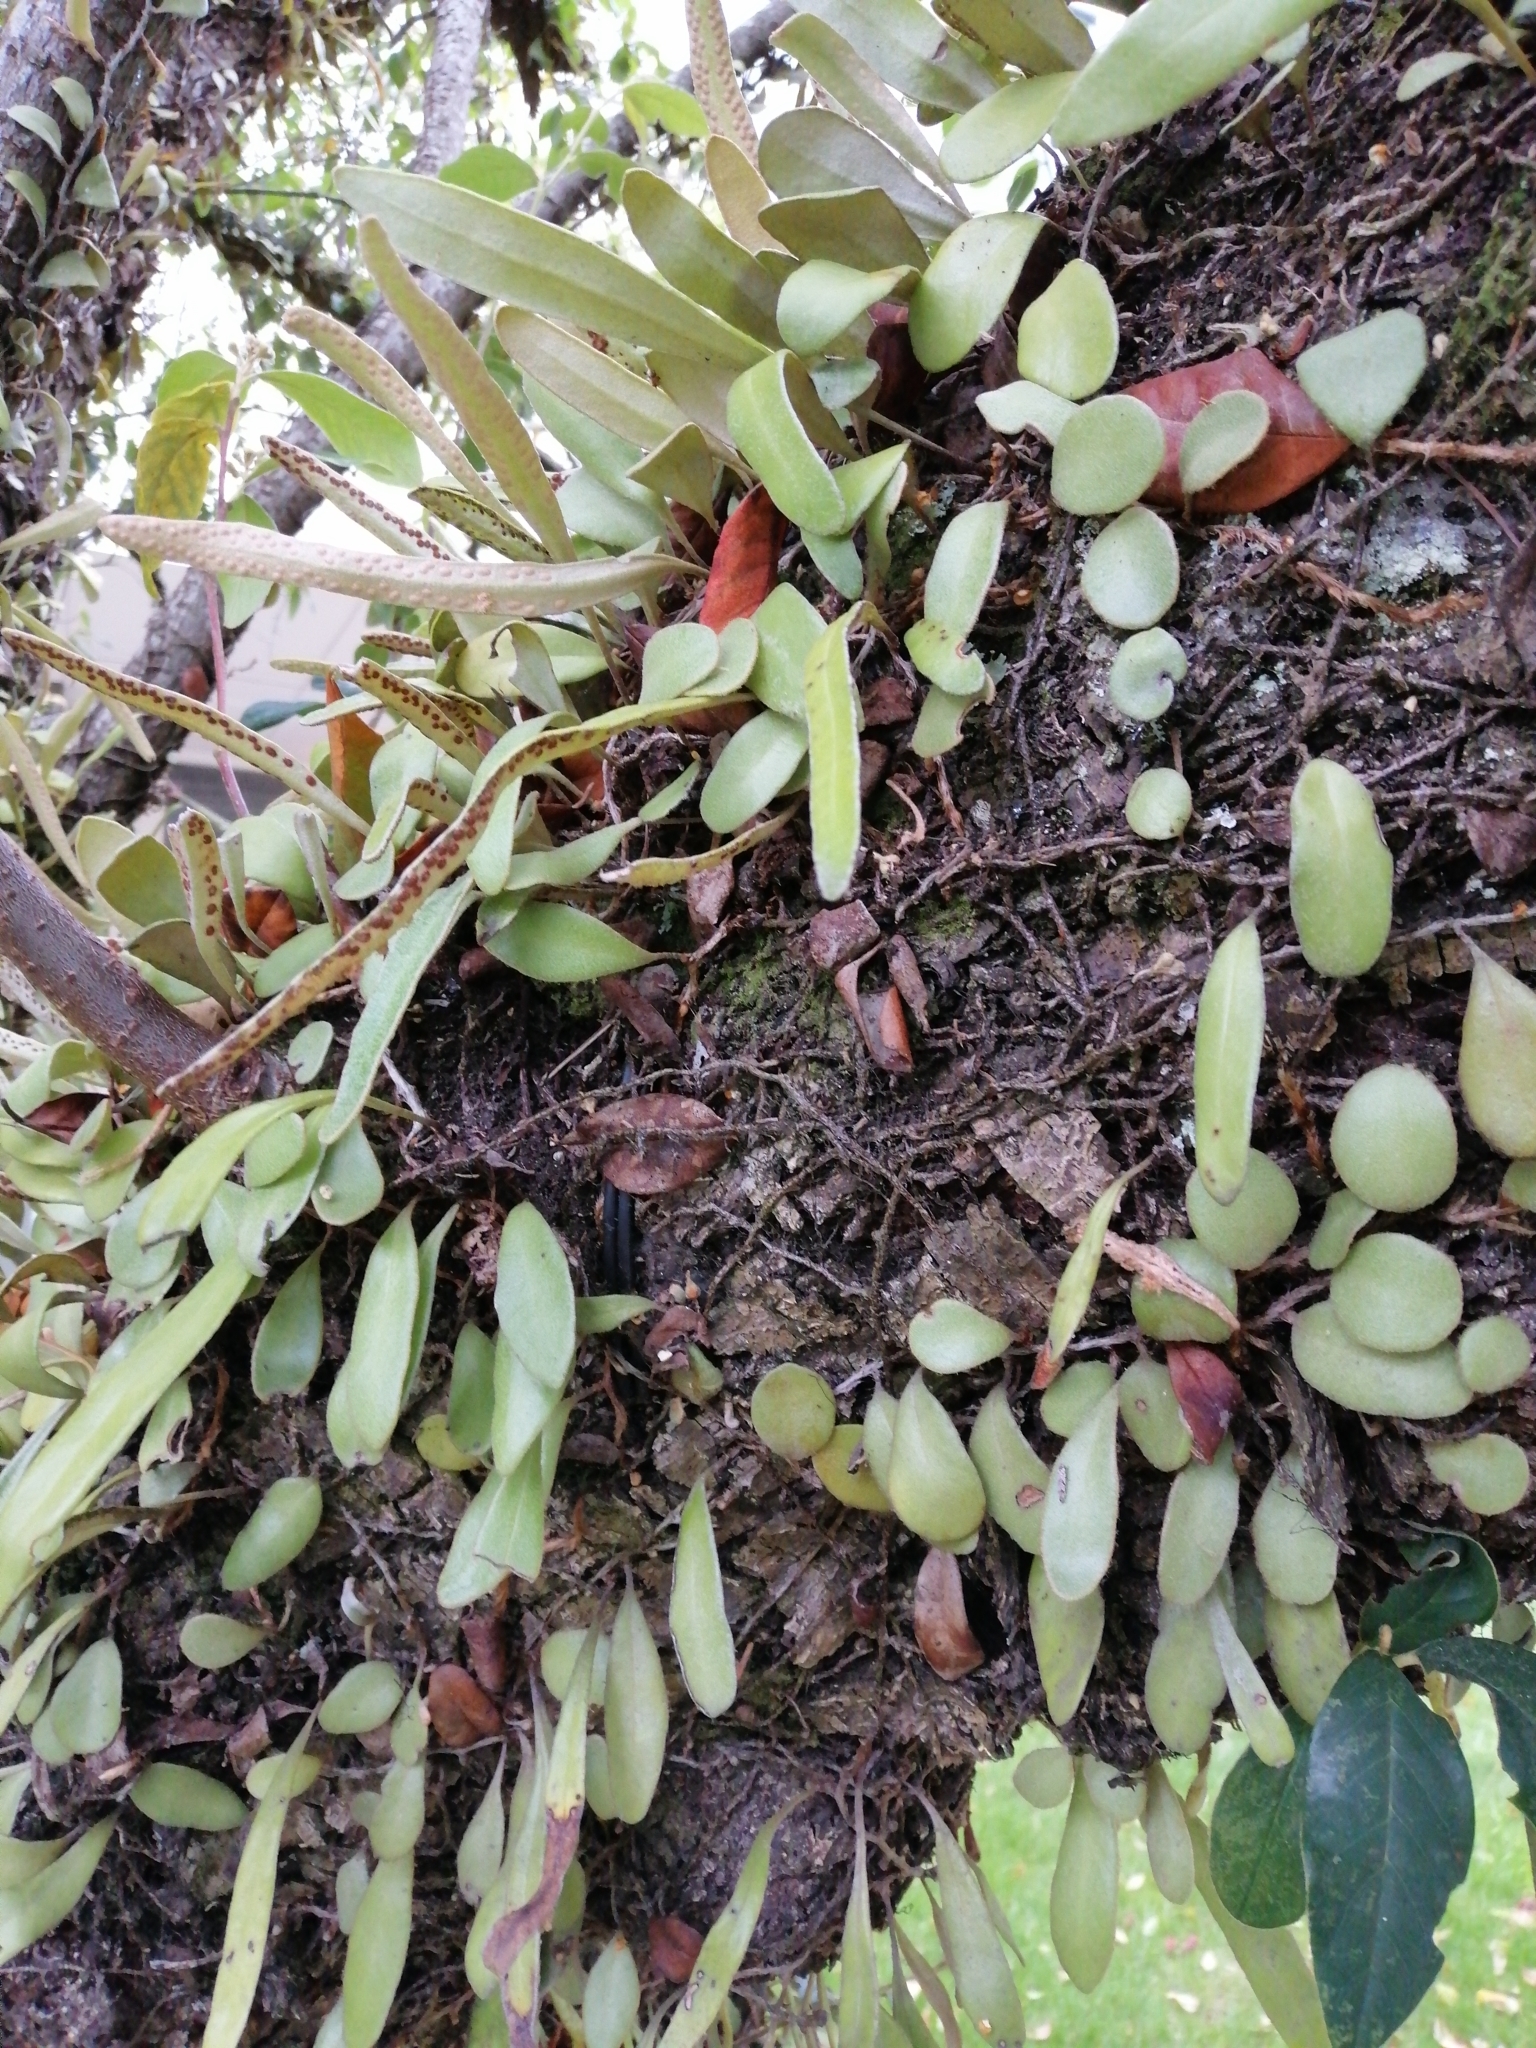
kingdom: Plantae
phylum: Tracheophyta
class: Polypodiopsida
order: Polypodiales
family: Polypodiaceae
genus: Pyrrosia
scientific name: Pyrrosia eleagnifolia
